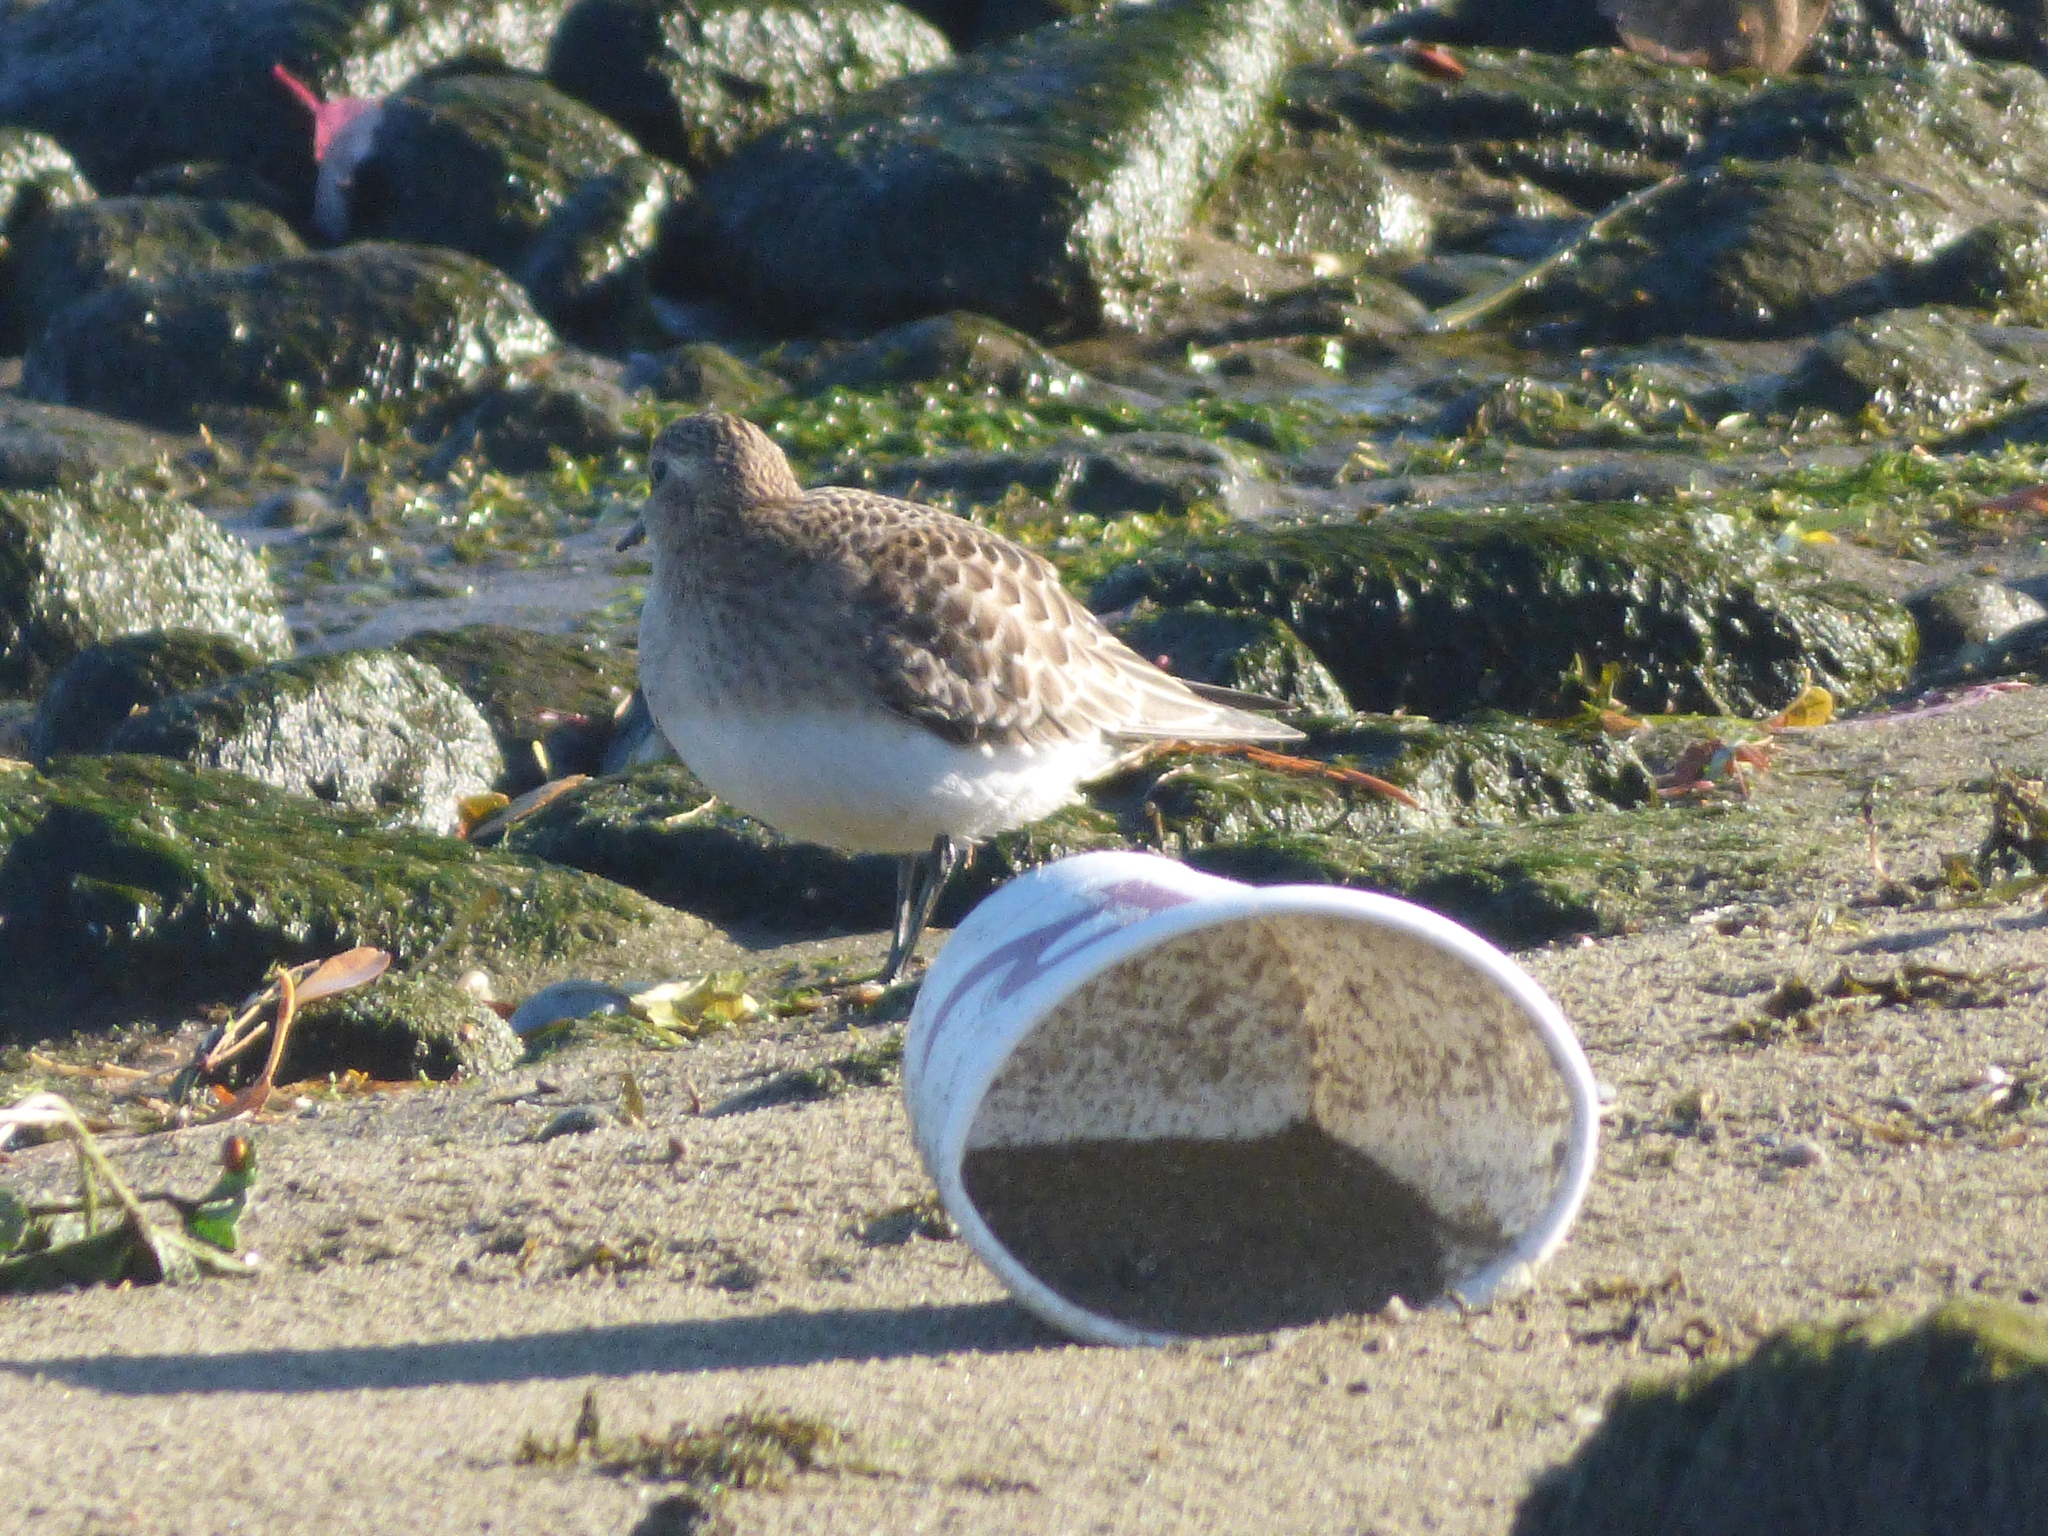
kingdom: Animalia
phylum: Chordata
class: Aves
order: Charadriiformes
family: Scolopacidae
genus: Calidris
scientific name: Calidris bairdii
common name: Baird's sandpiper
